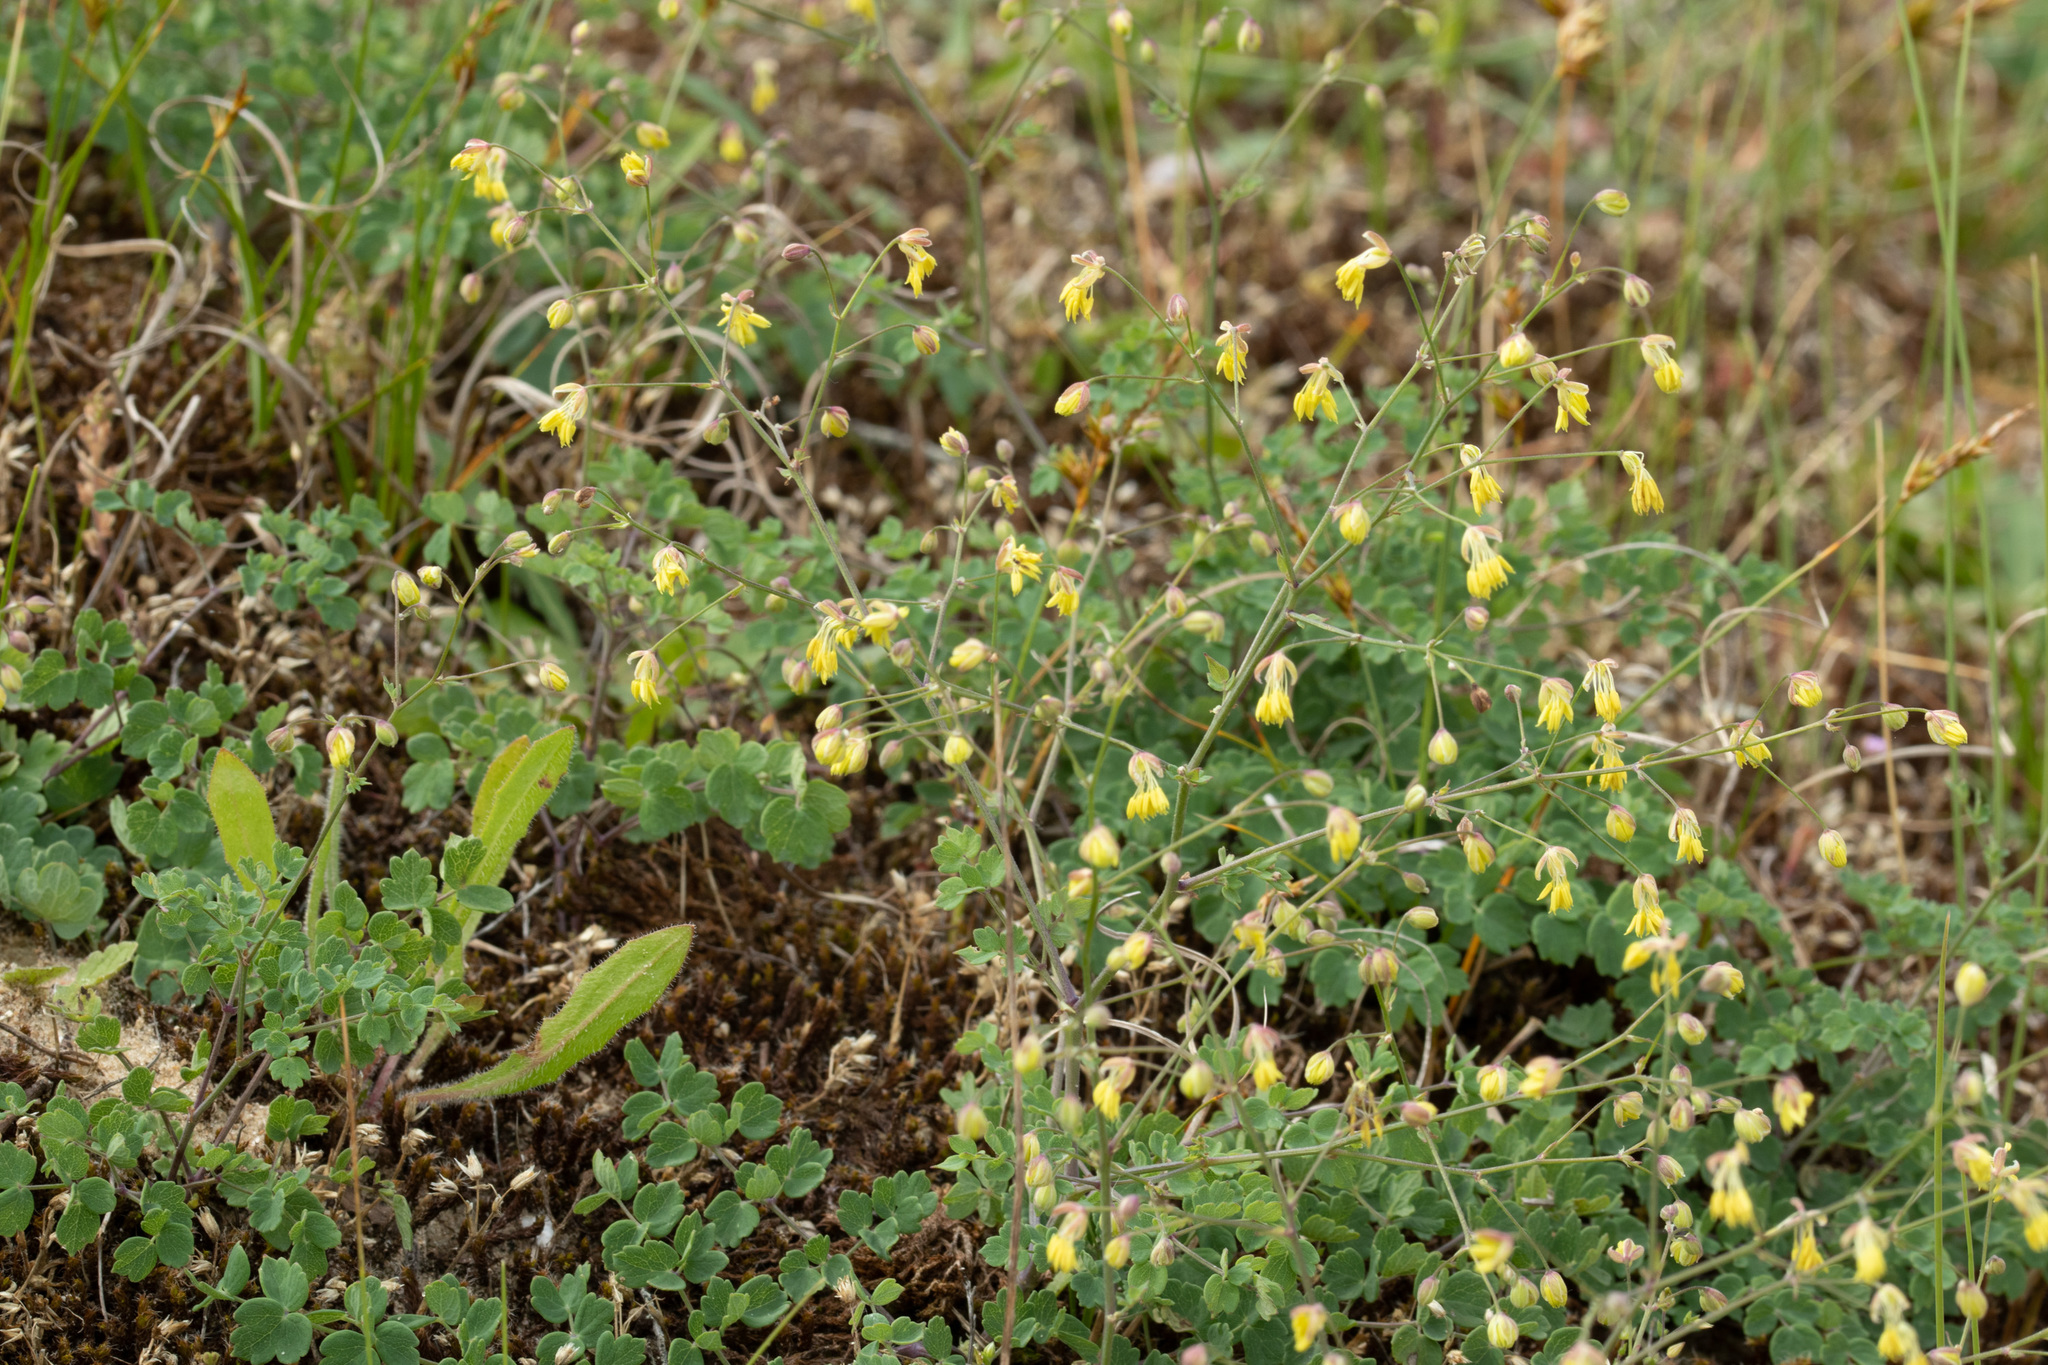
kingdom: Plantae
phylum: Tracheophyta
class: Magnoliopsida
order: Ranunculales
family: Ranunculaceae
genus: Thalictrum
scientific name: Thalictrum minus
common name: Lesser meadow-rue
